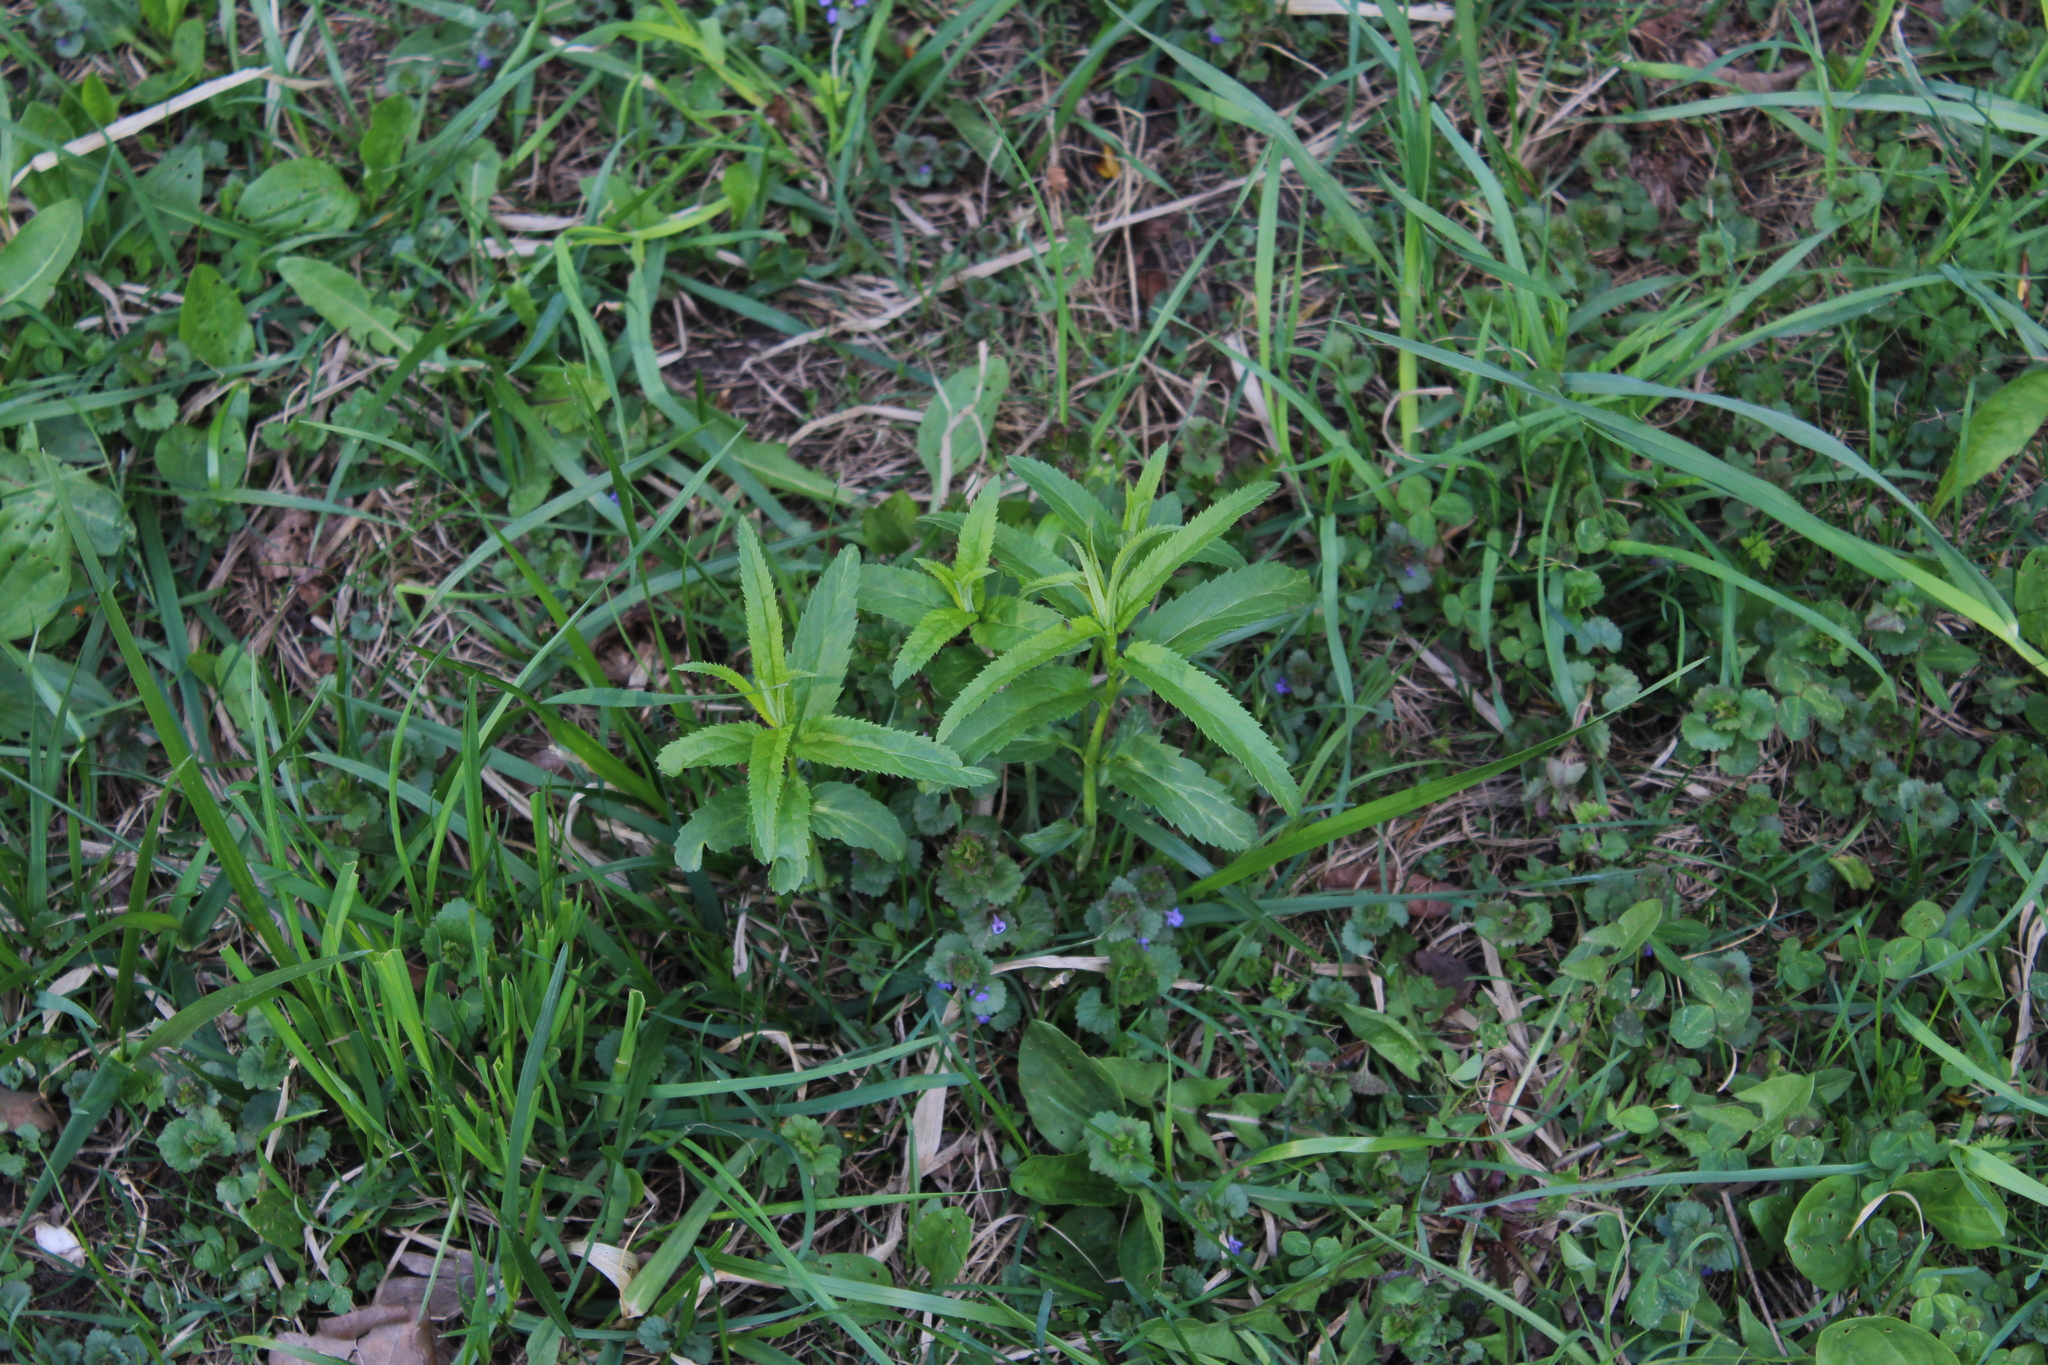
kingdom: Plantae
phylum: Tracheophyta
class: Magnoliopsida
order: Lamiales
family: Plantaginaceae
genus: Veronica
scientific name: Veronica longifolia
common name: Garden speedwell
